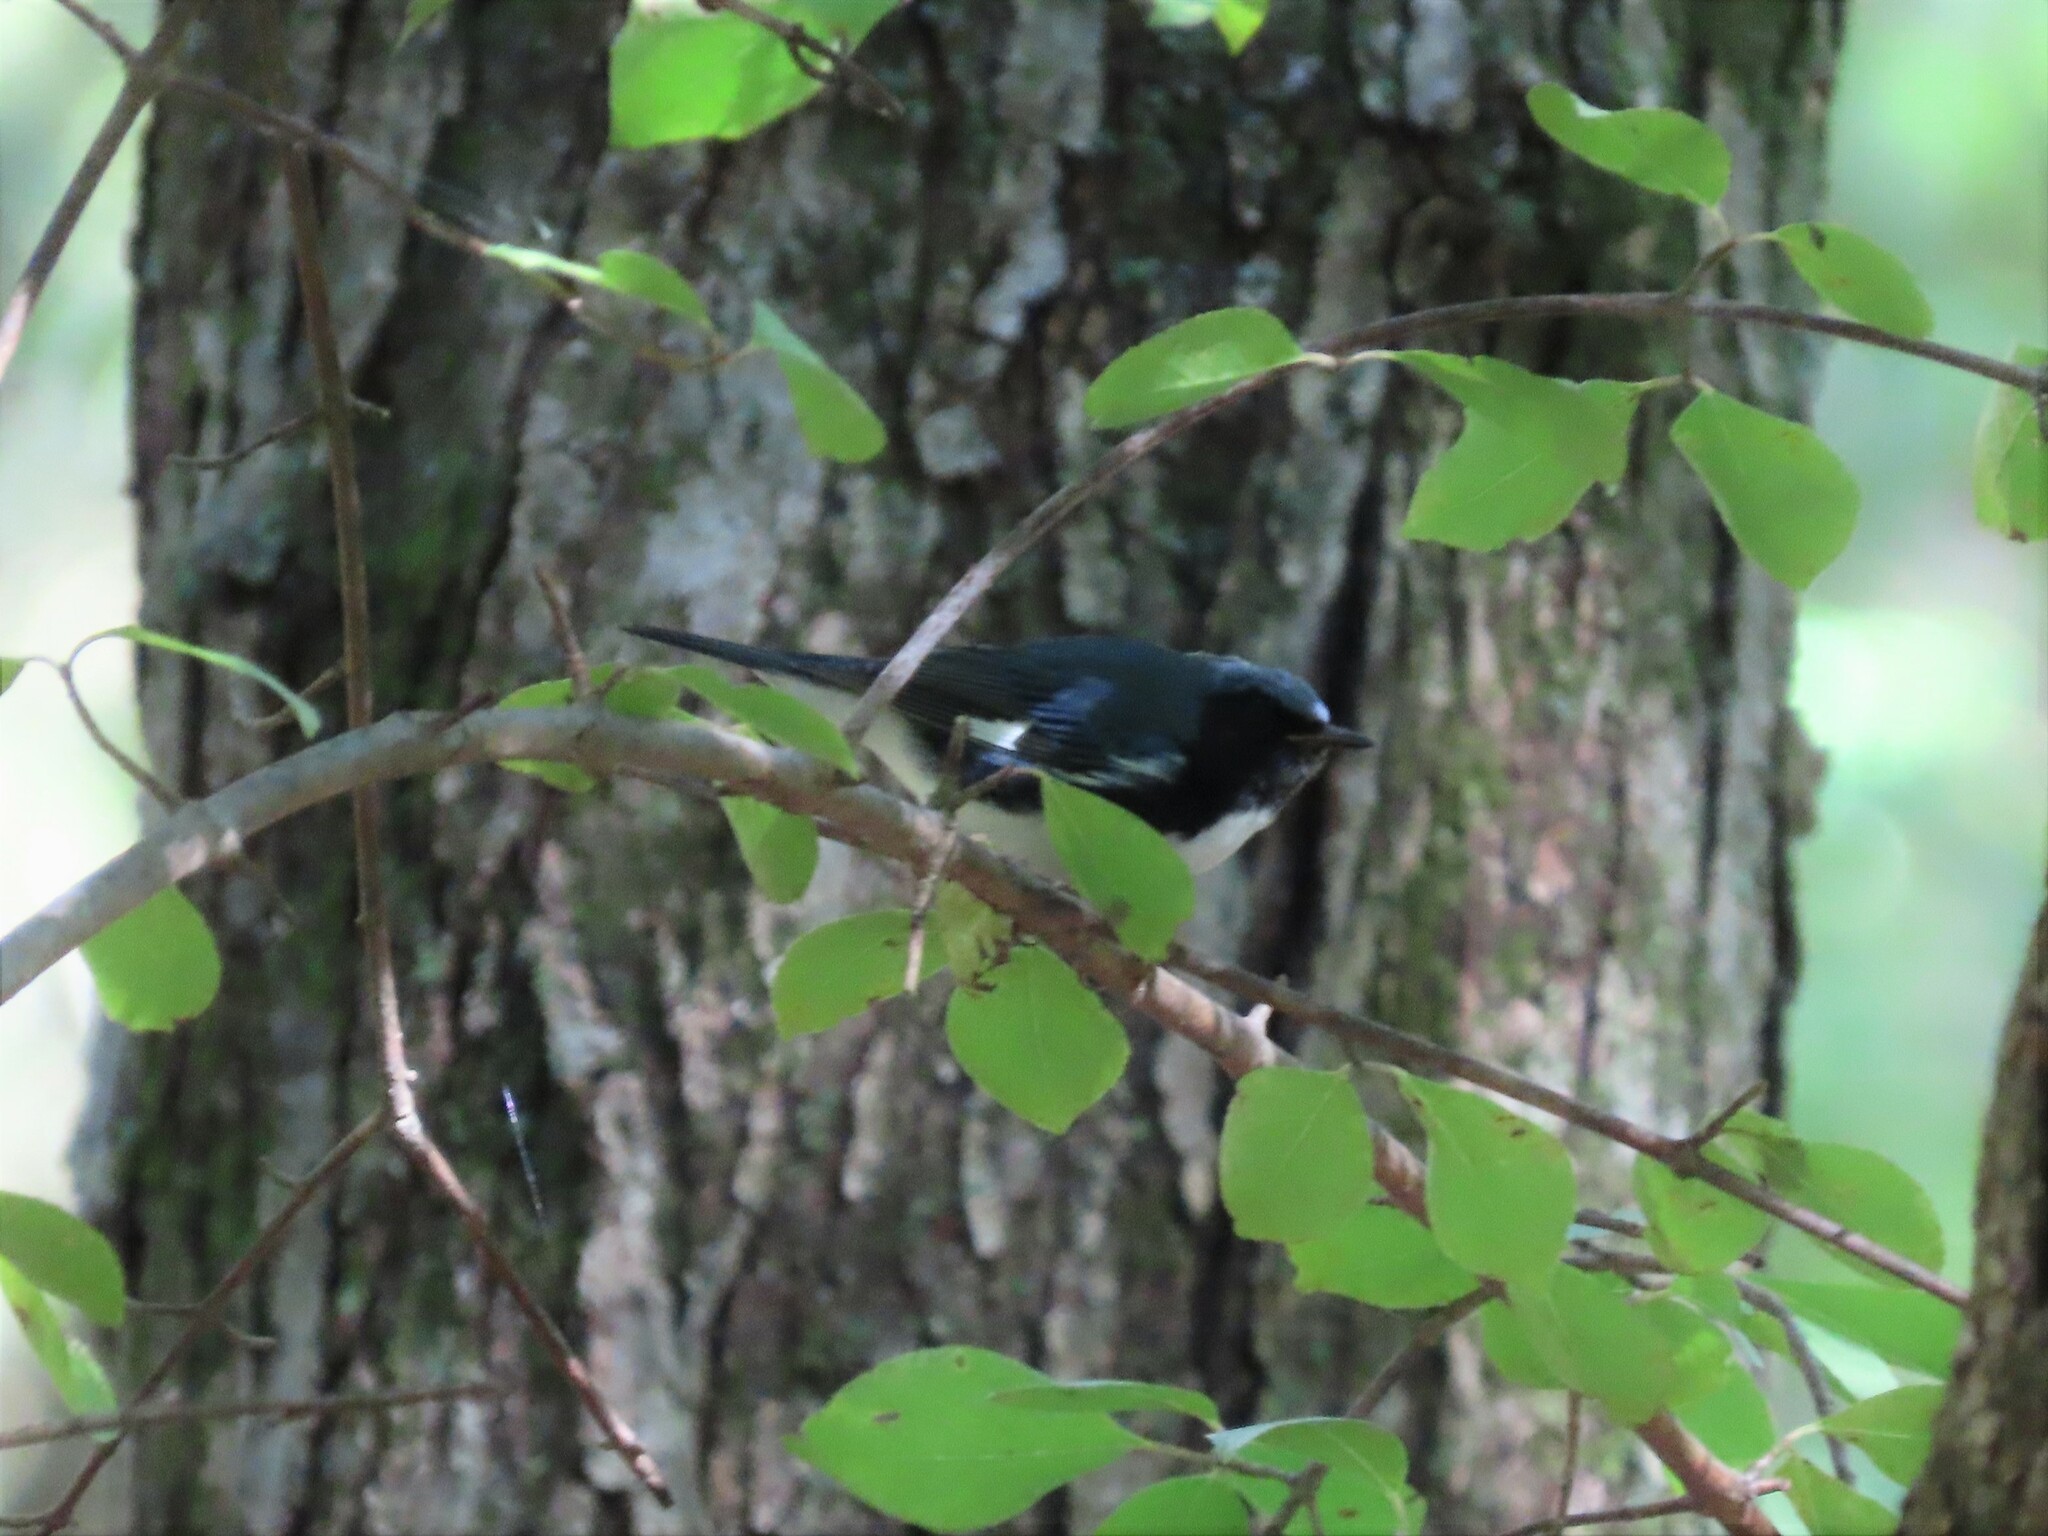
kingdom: Animalia
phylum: Chordata
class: Aves
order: Passeriformes
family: Parulidae
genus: Setophaga
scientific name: Setophaga caerulescens
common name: Black-throated blue warbler
